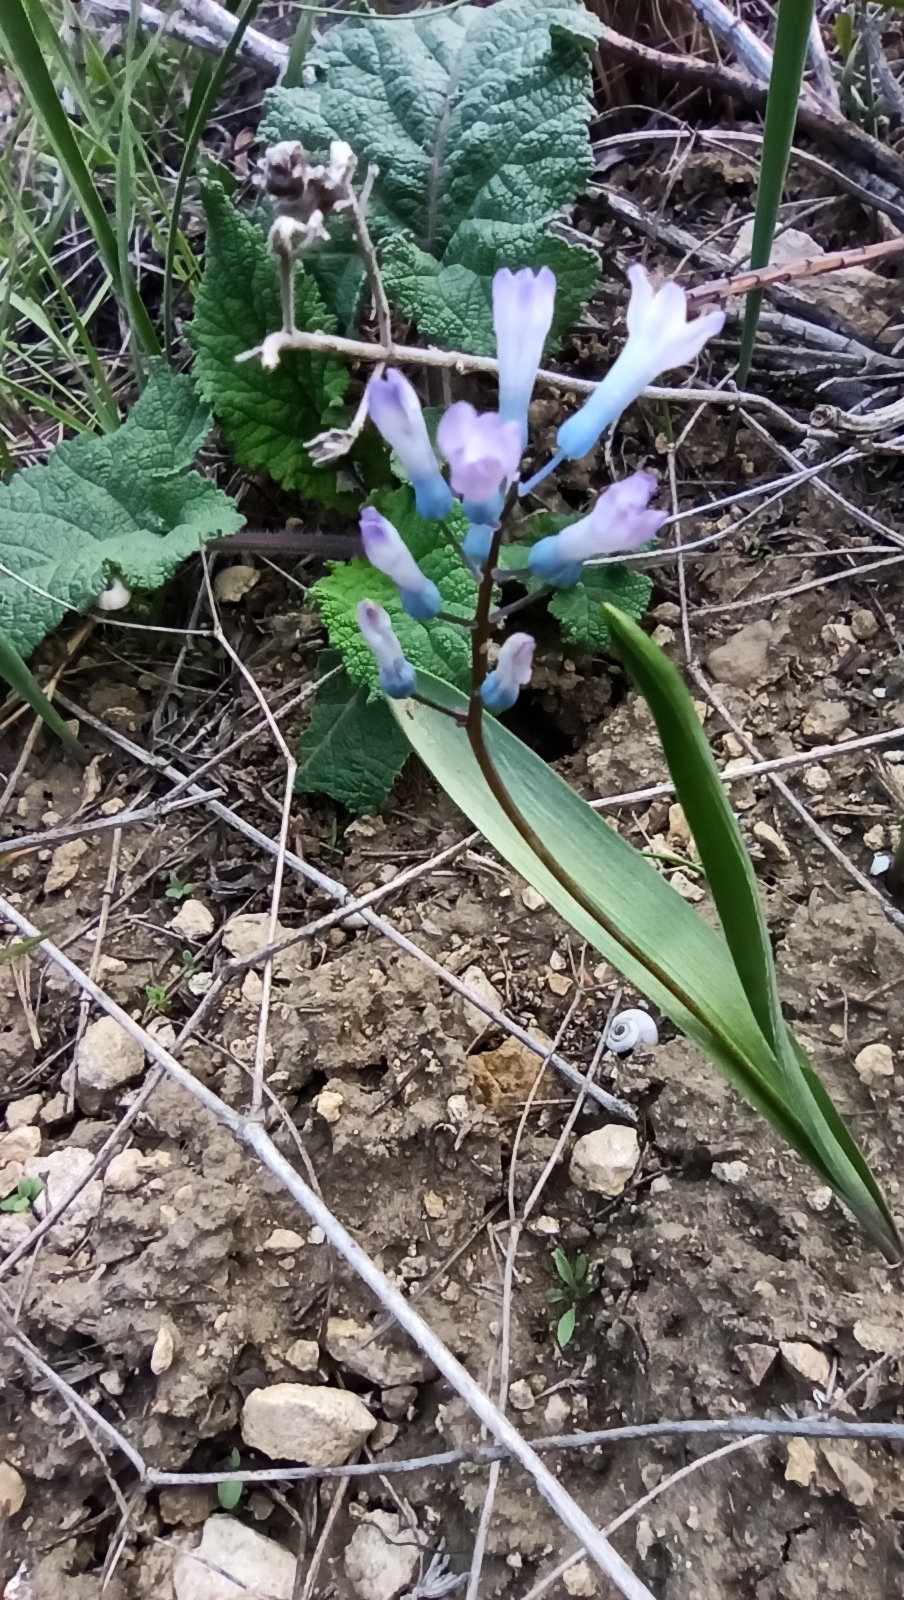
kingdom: Plantae
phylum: Tracheophyta
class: Liliopsida
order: Asparagales
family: Asparagaceae
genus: Hyacinthella
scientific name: Hyacinthella pallasiana
